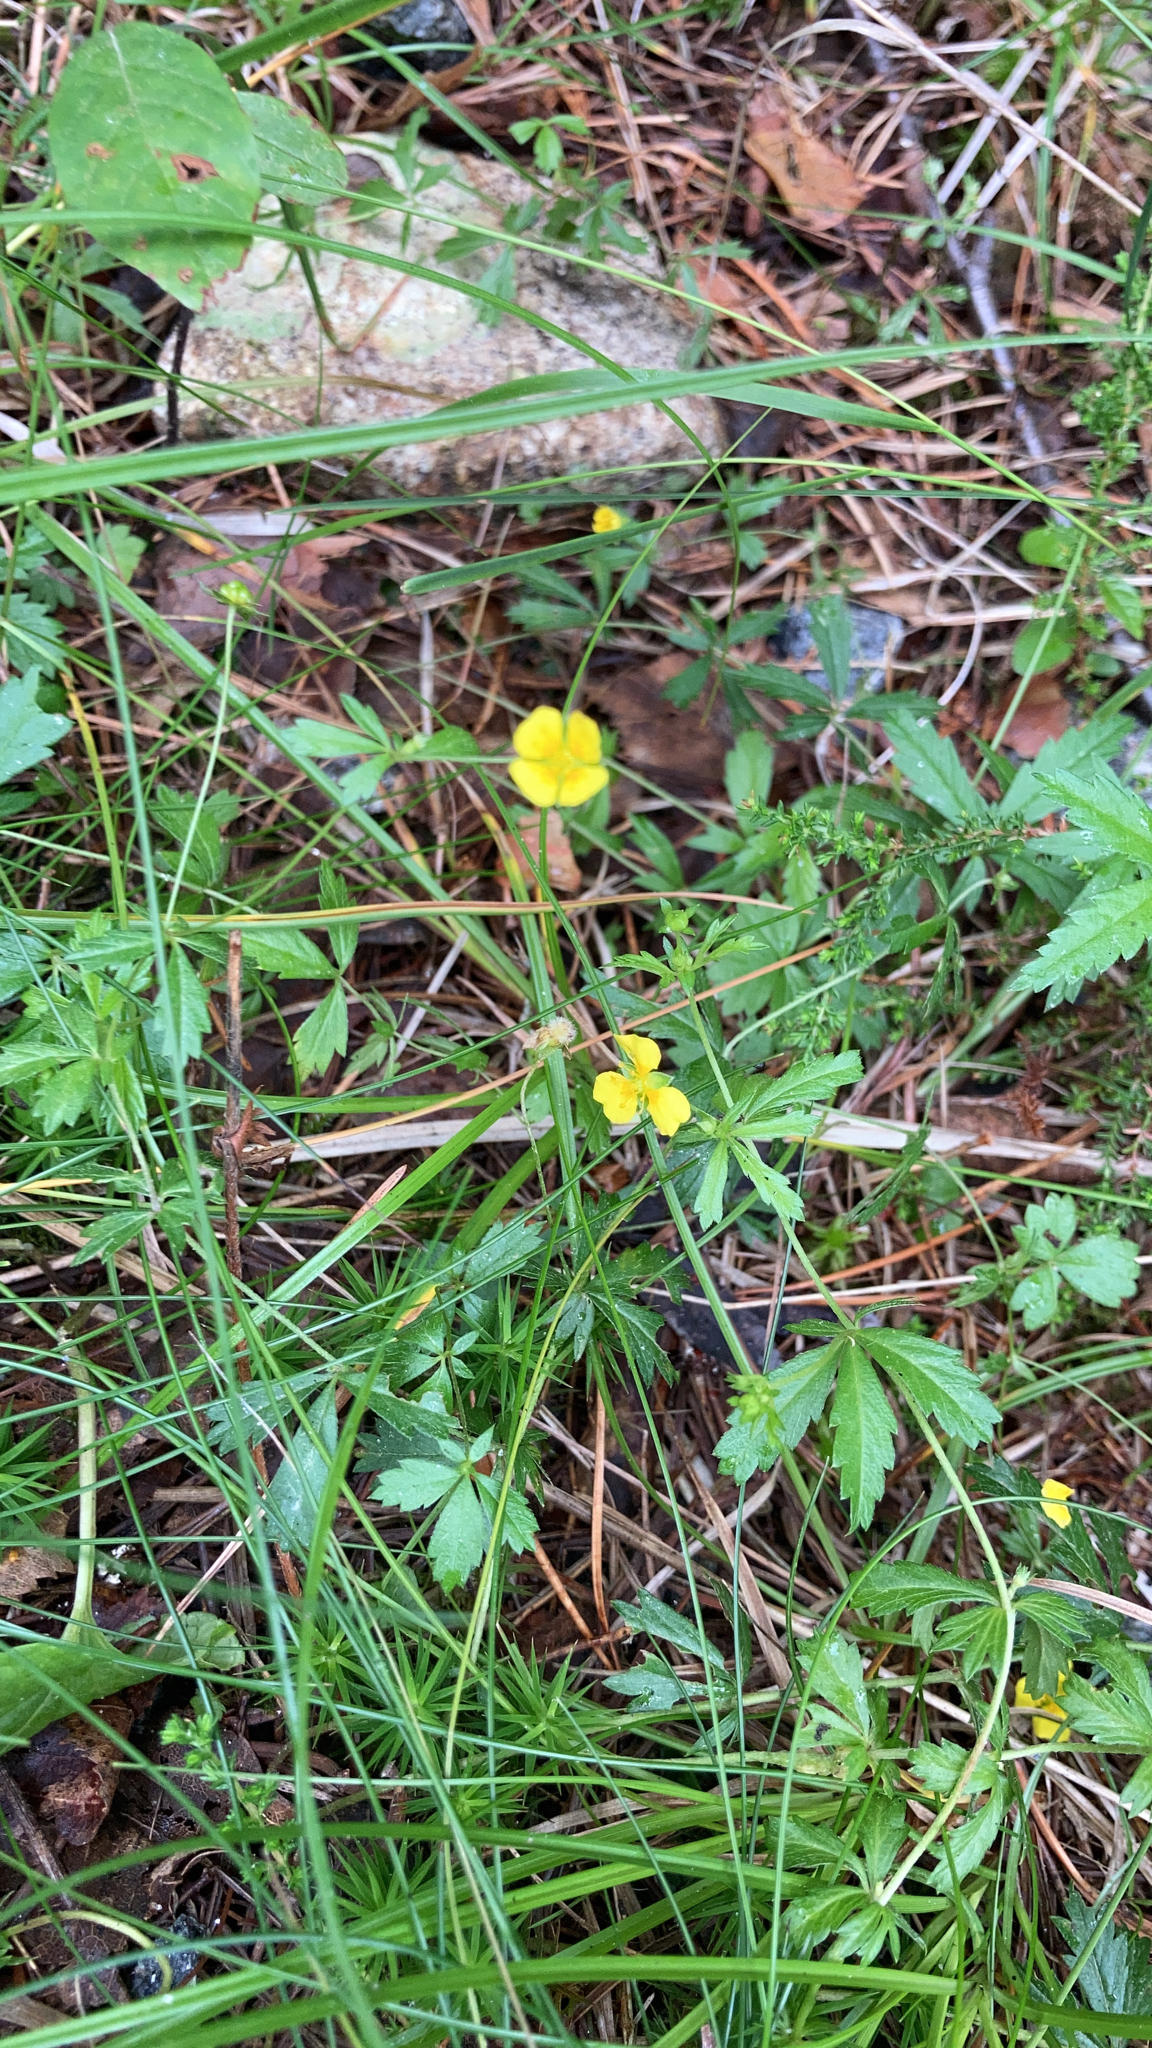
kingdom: Plantae
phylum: Tracheophyta
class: Magnoliopsida
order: Rosales
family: Rosaceae
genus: Potentilla
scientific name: Potentilla erecta
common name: Tormentil
